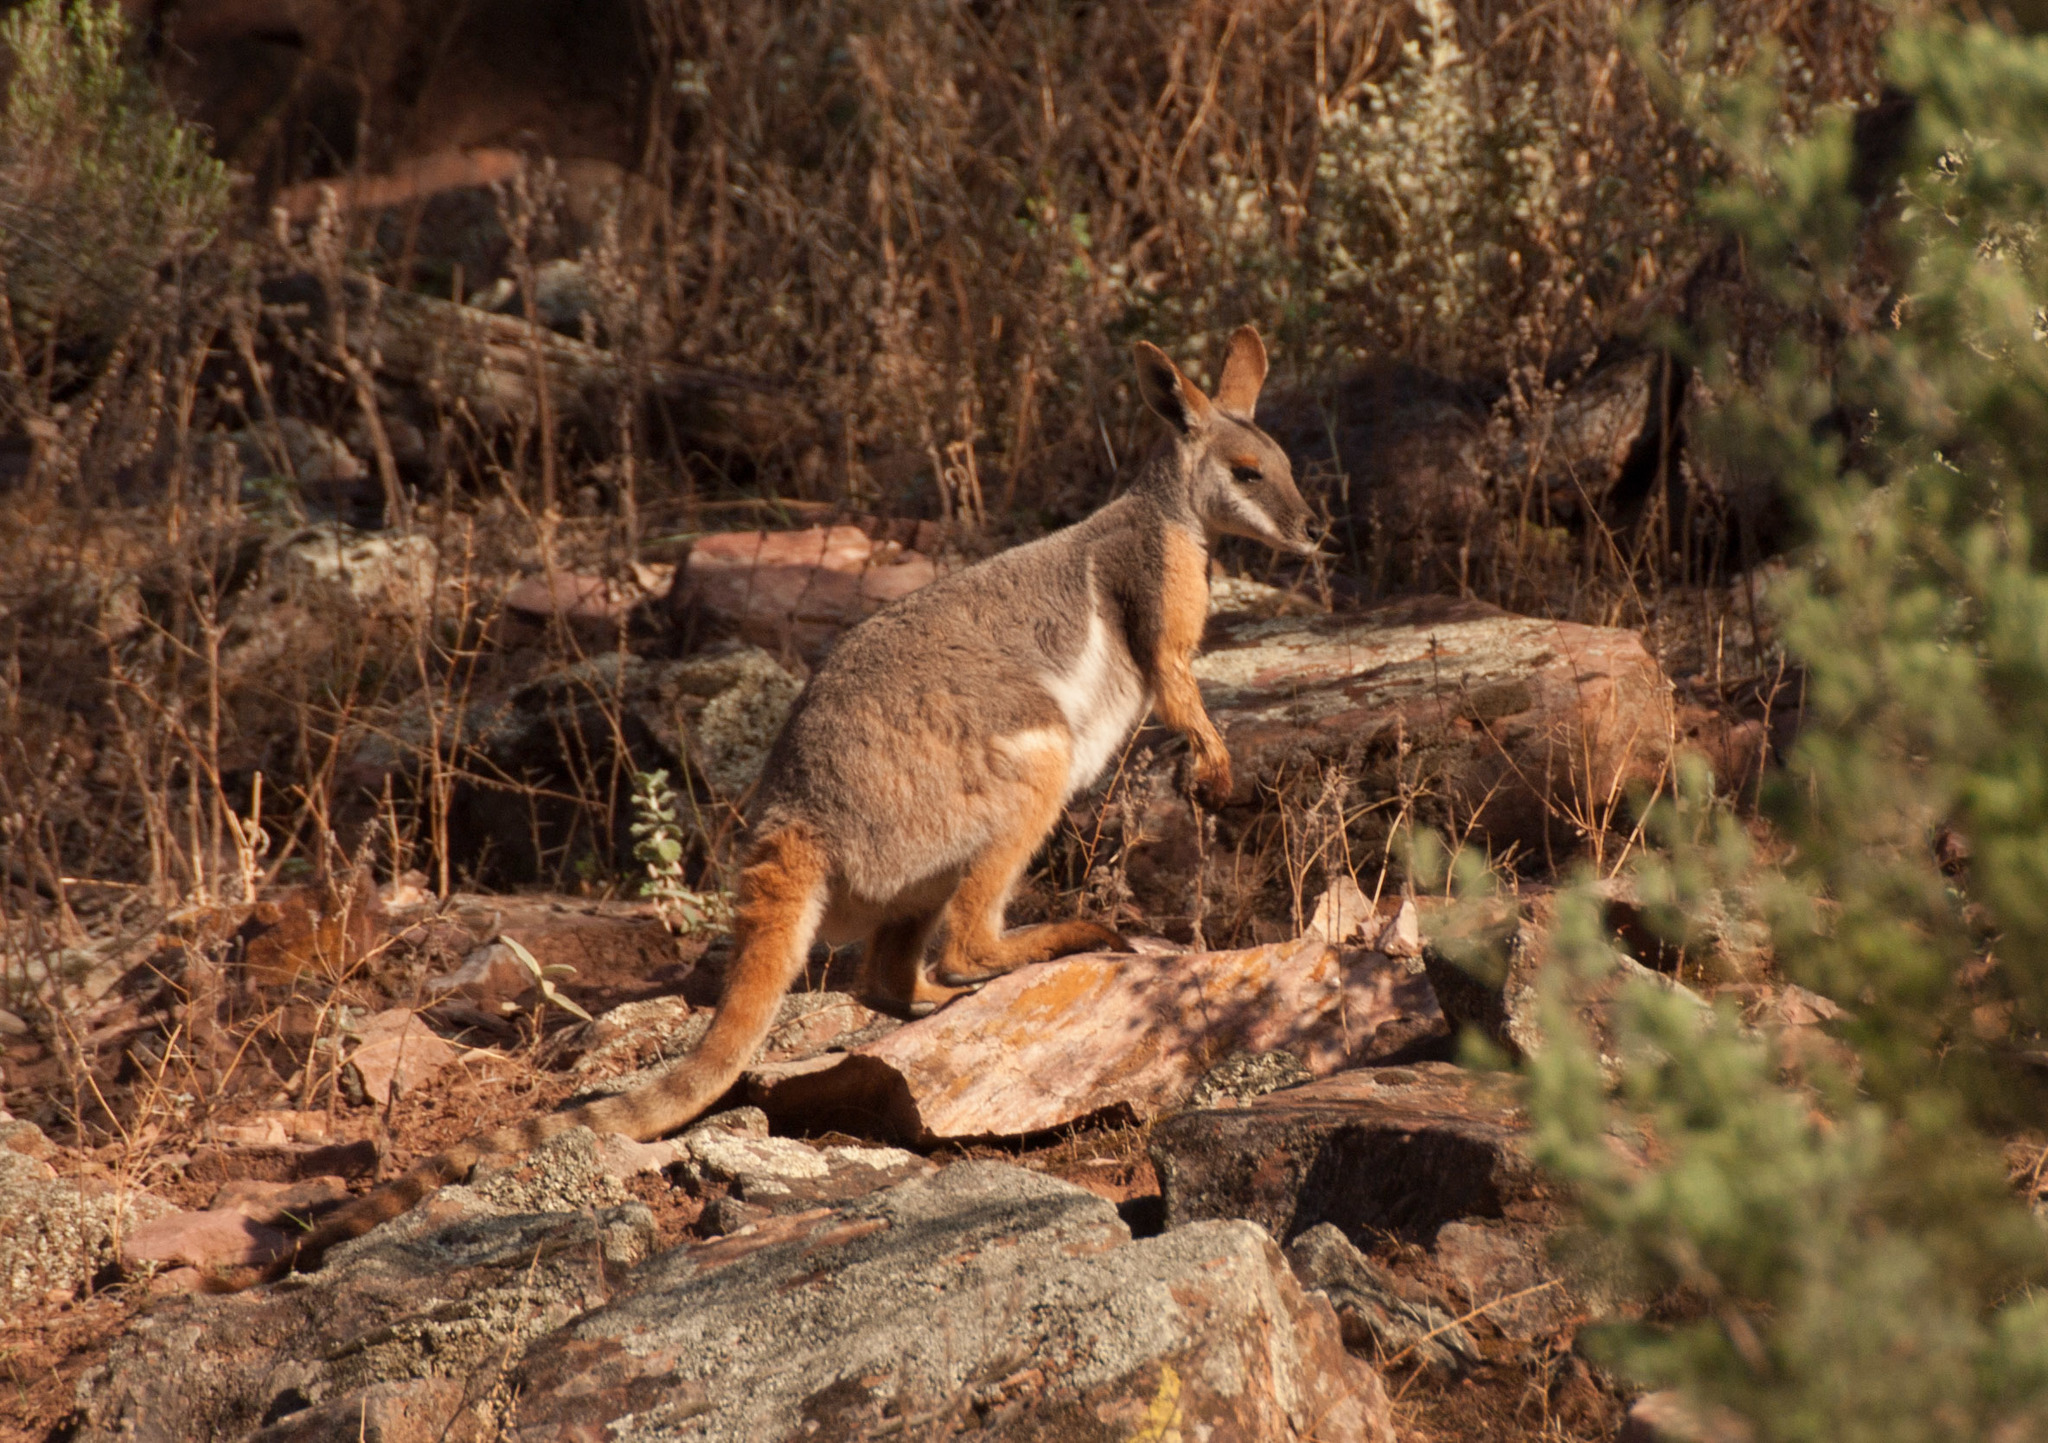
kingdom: Animalia
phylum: Chordata
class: Mammalia
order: Diprotodontia
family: Macropodidae
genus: Petrogale
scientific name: Petrogale xanthopus
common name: Yellow-footed rock-wallaby
